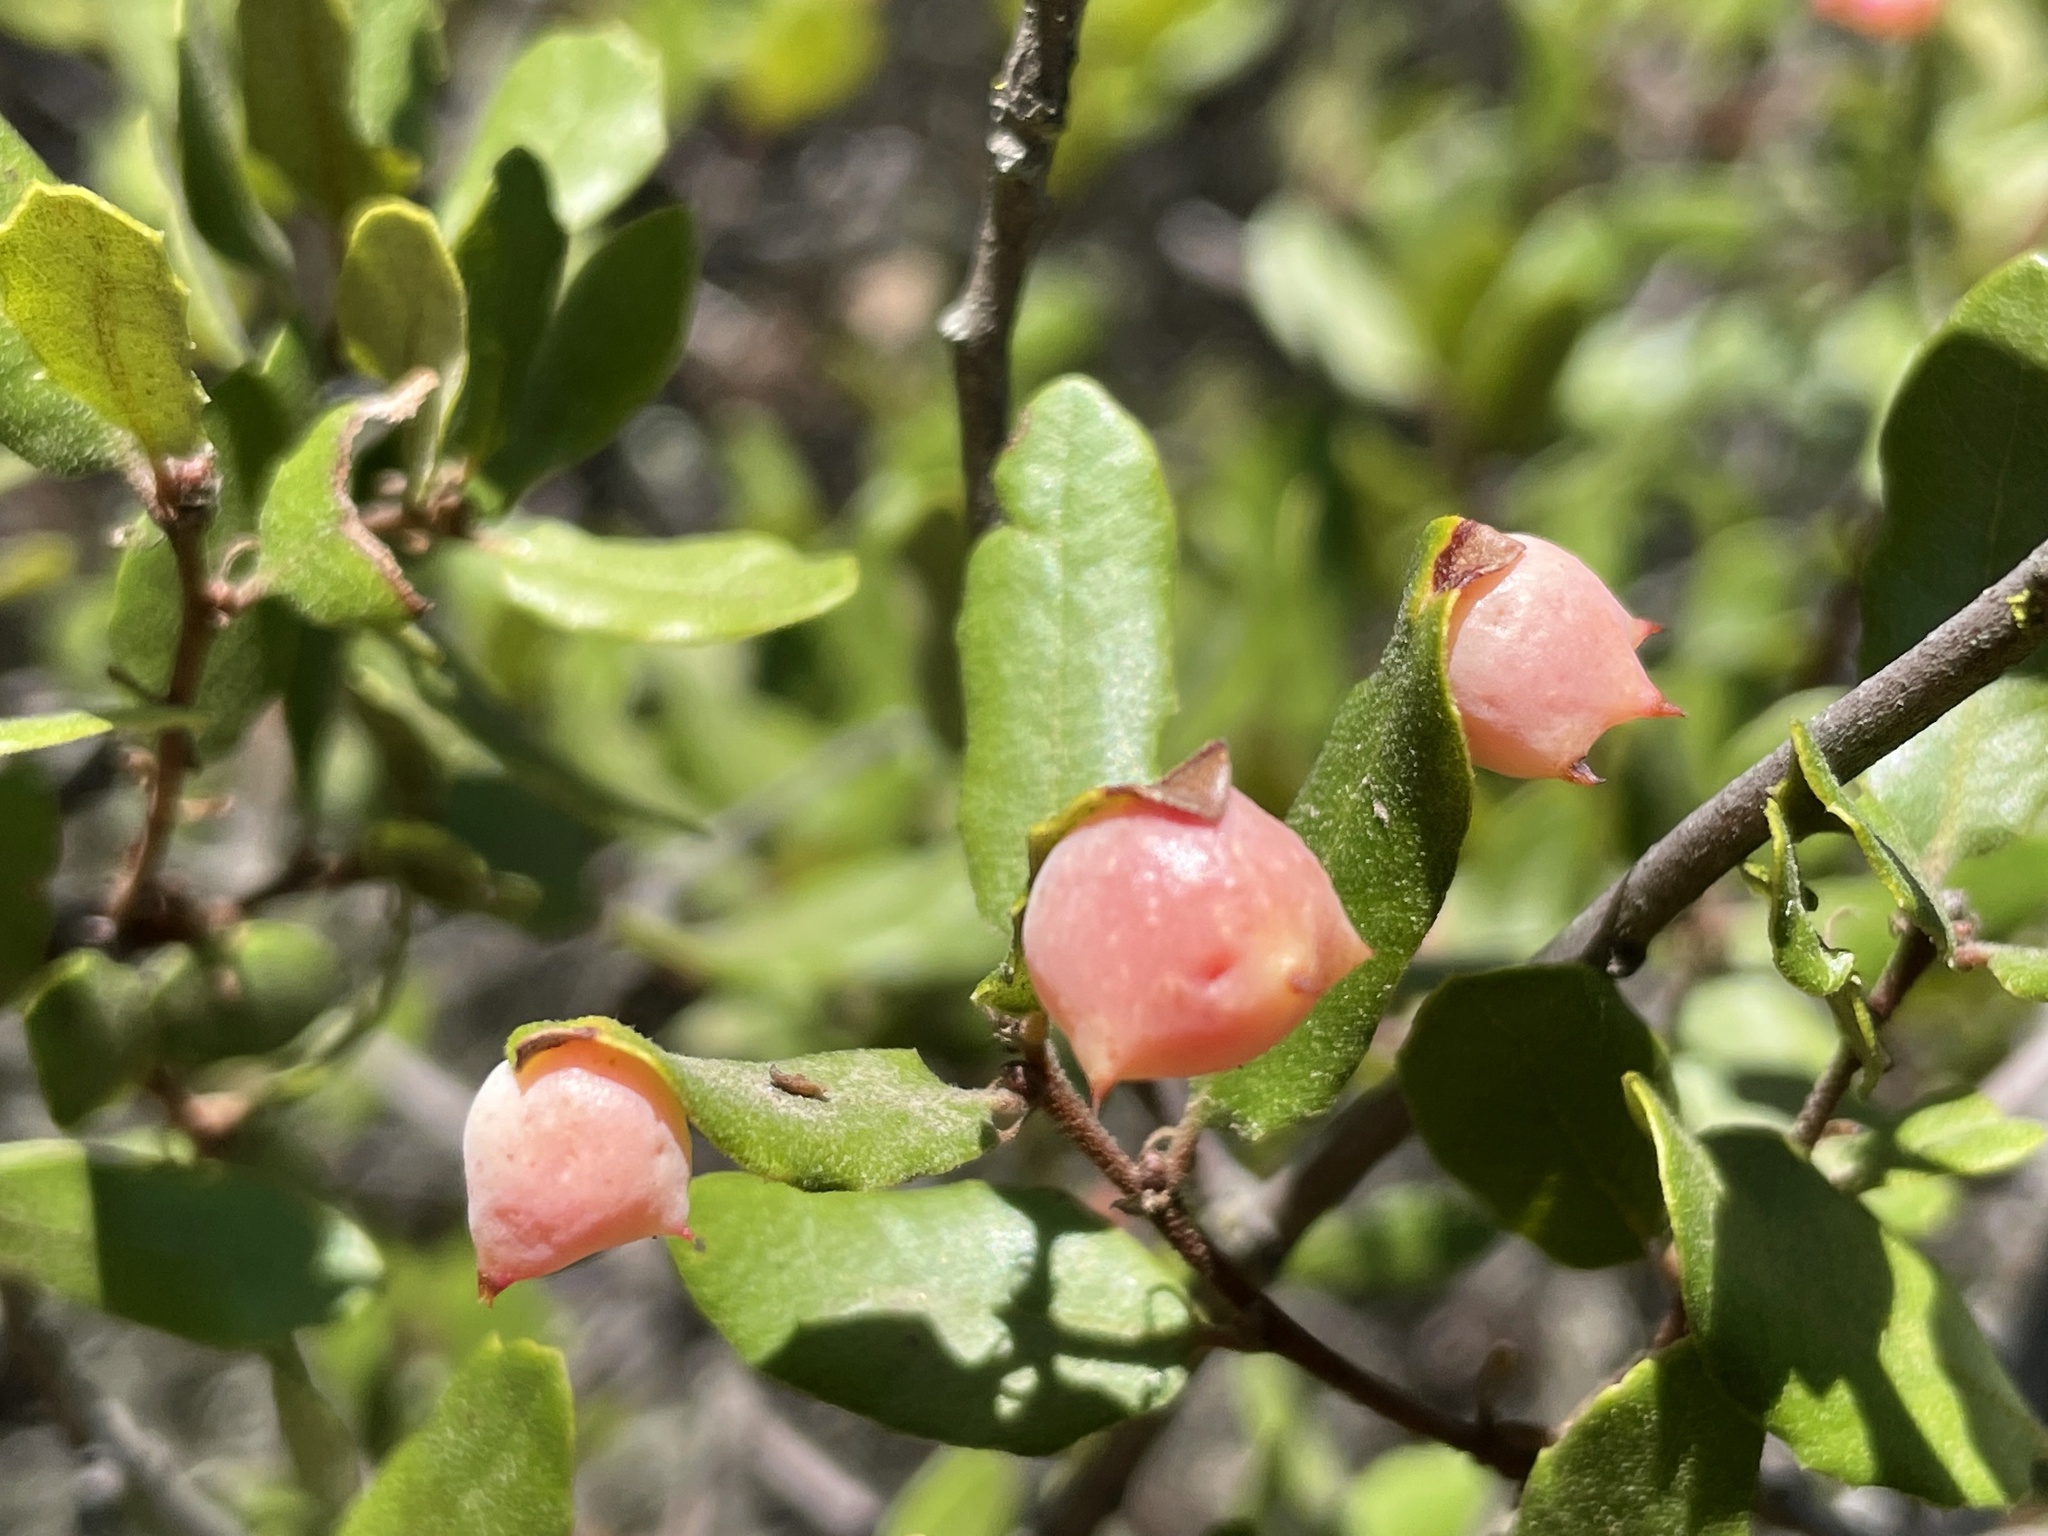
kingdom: Animalia
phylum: Arthropoda
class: Insecta
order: Hymenoptera
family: Cynipidae
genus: Cynips
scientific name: Cynips douglasi
